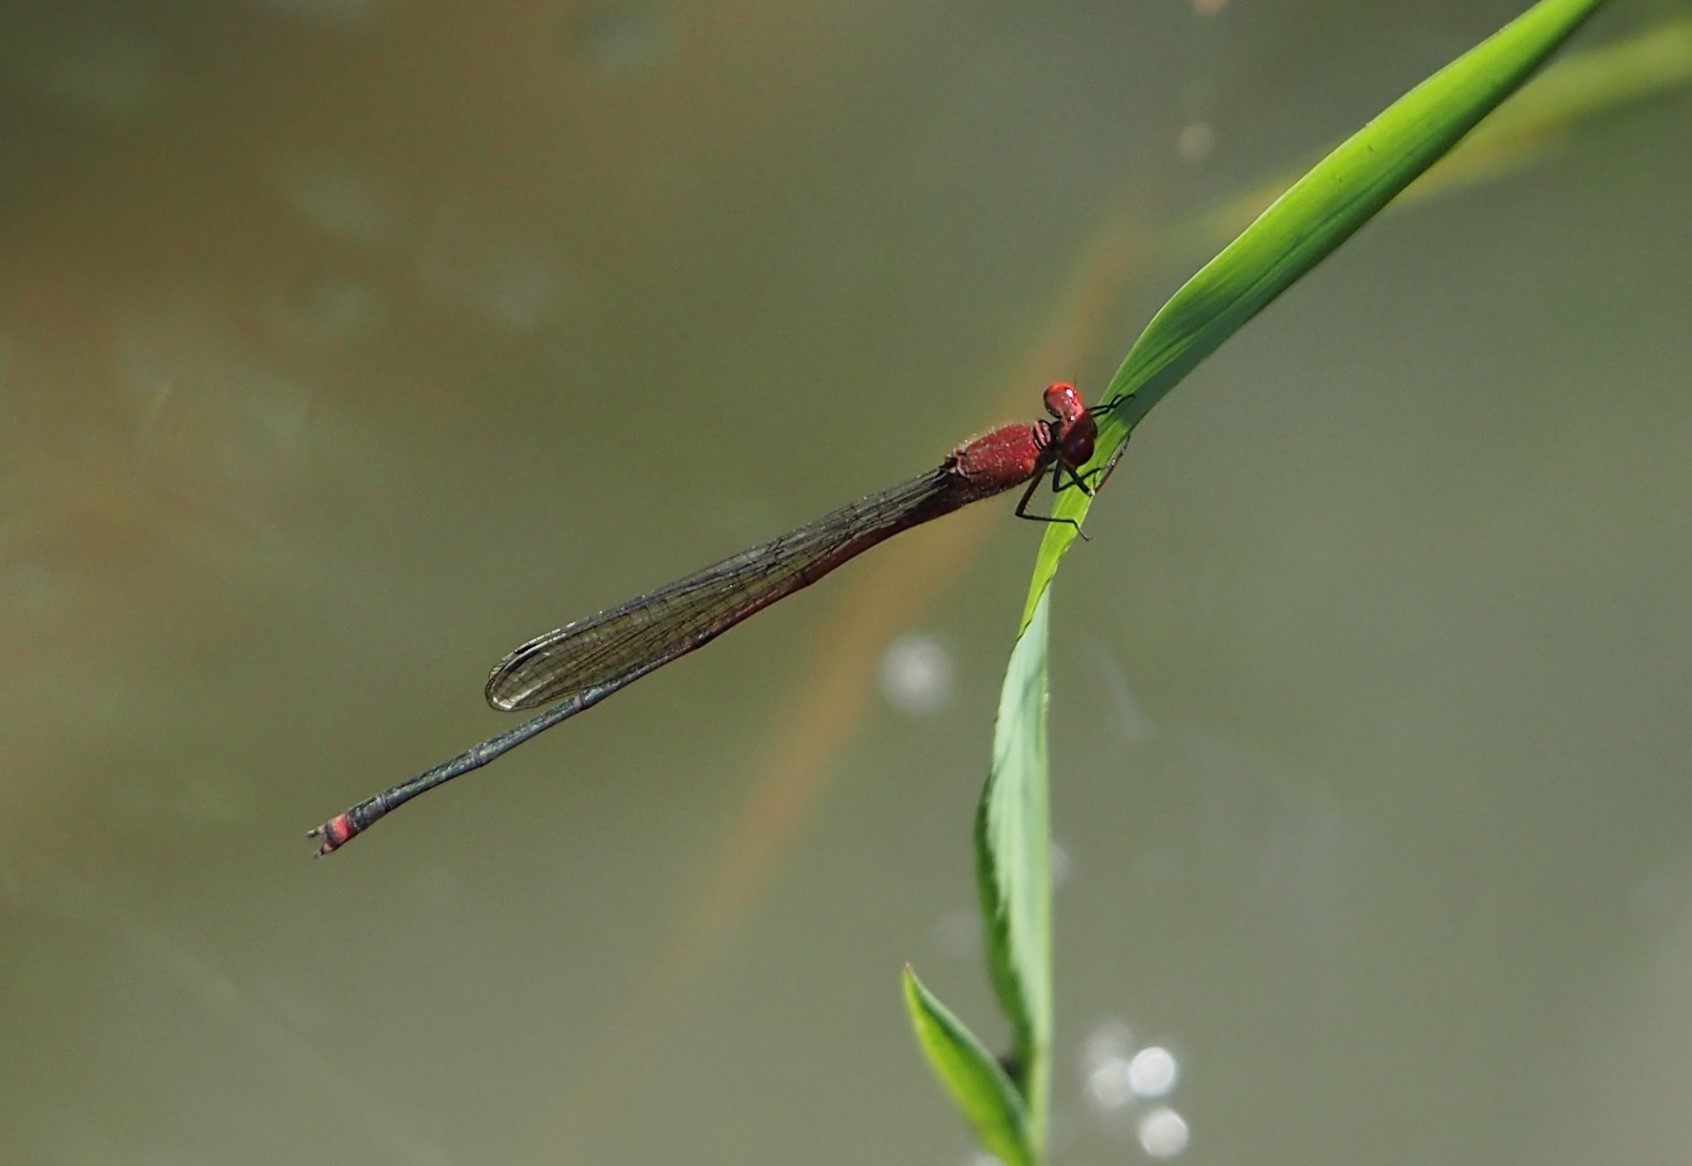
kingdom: Animalia
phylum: Arthropoda
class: Insecta
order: Odonata
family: Coenagrionidae
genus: Pseudagrion
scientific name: Pseudagrion pilidorsum
